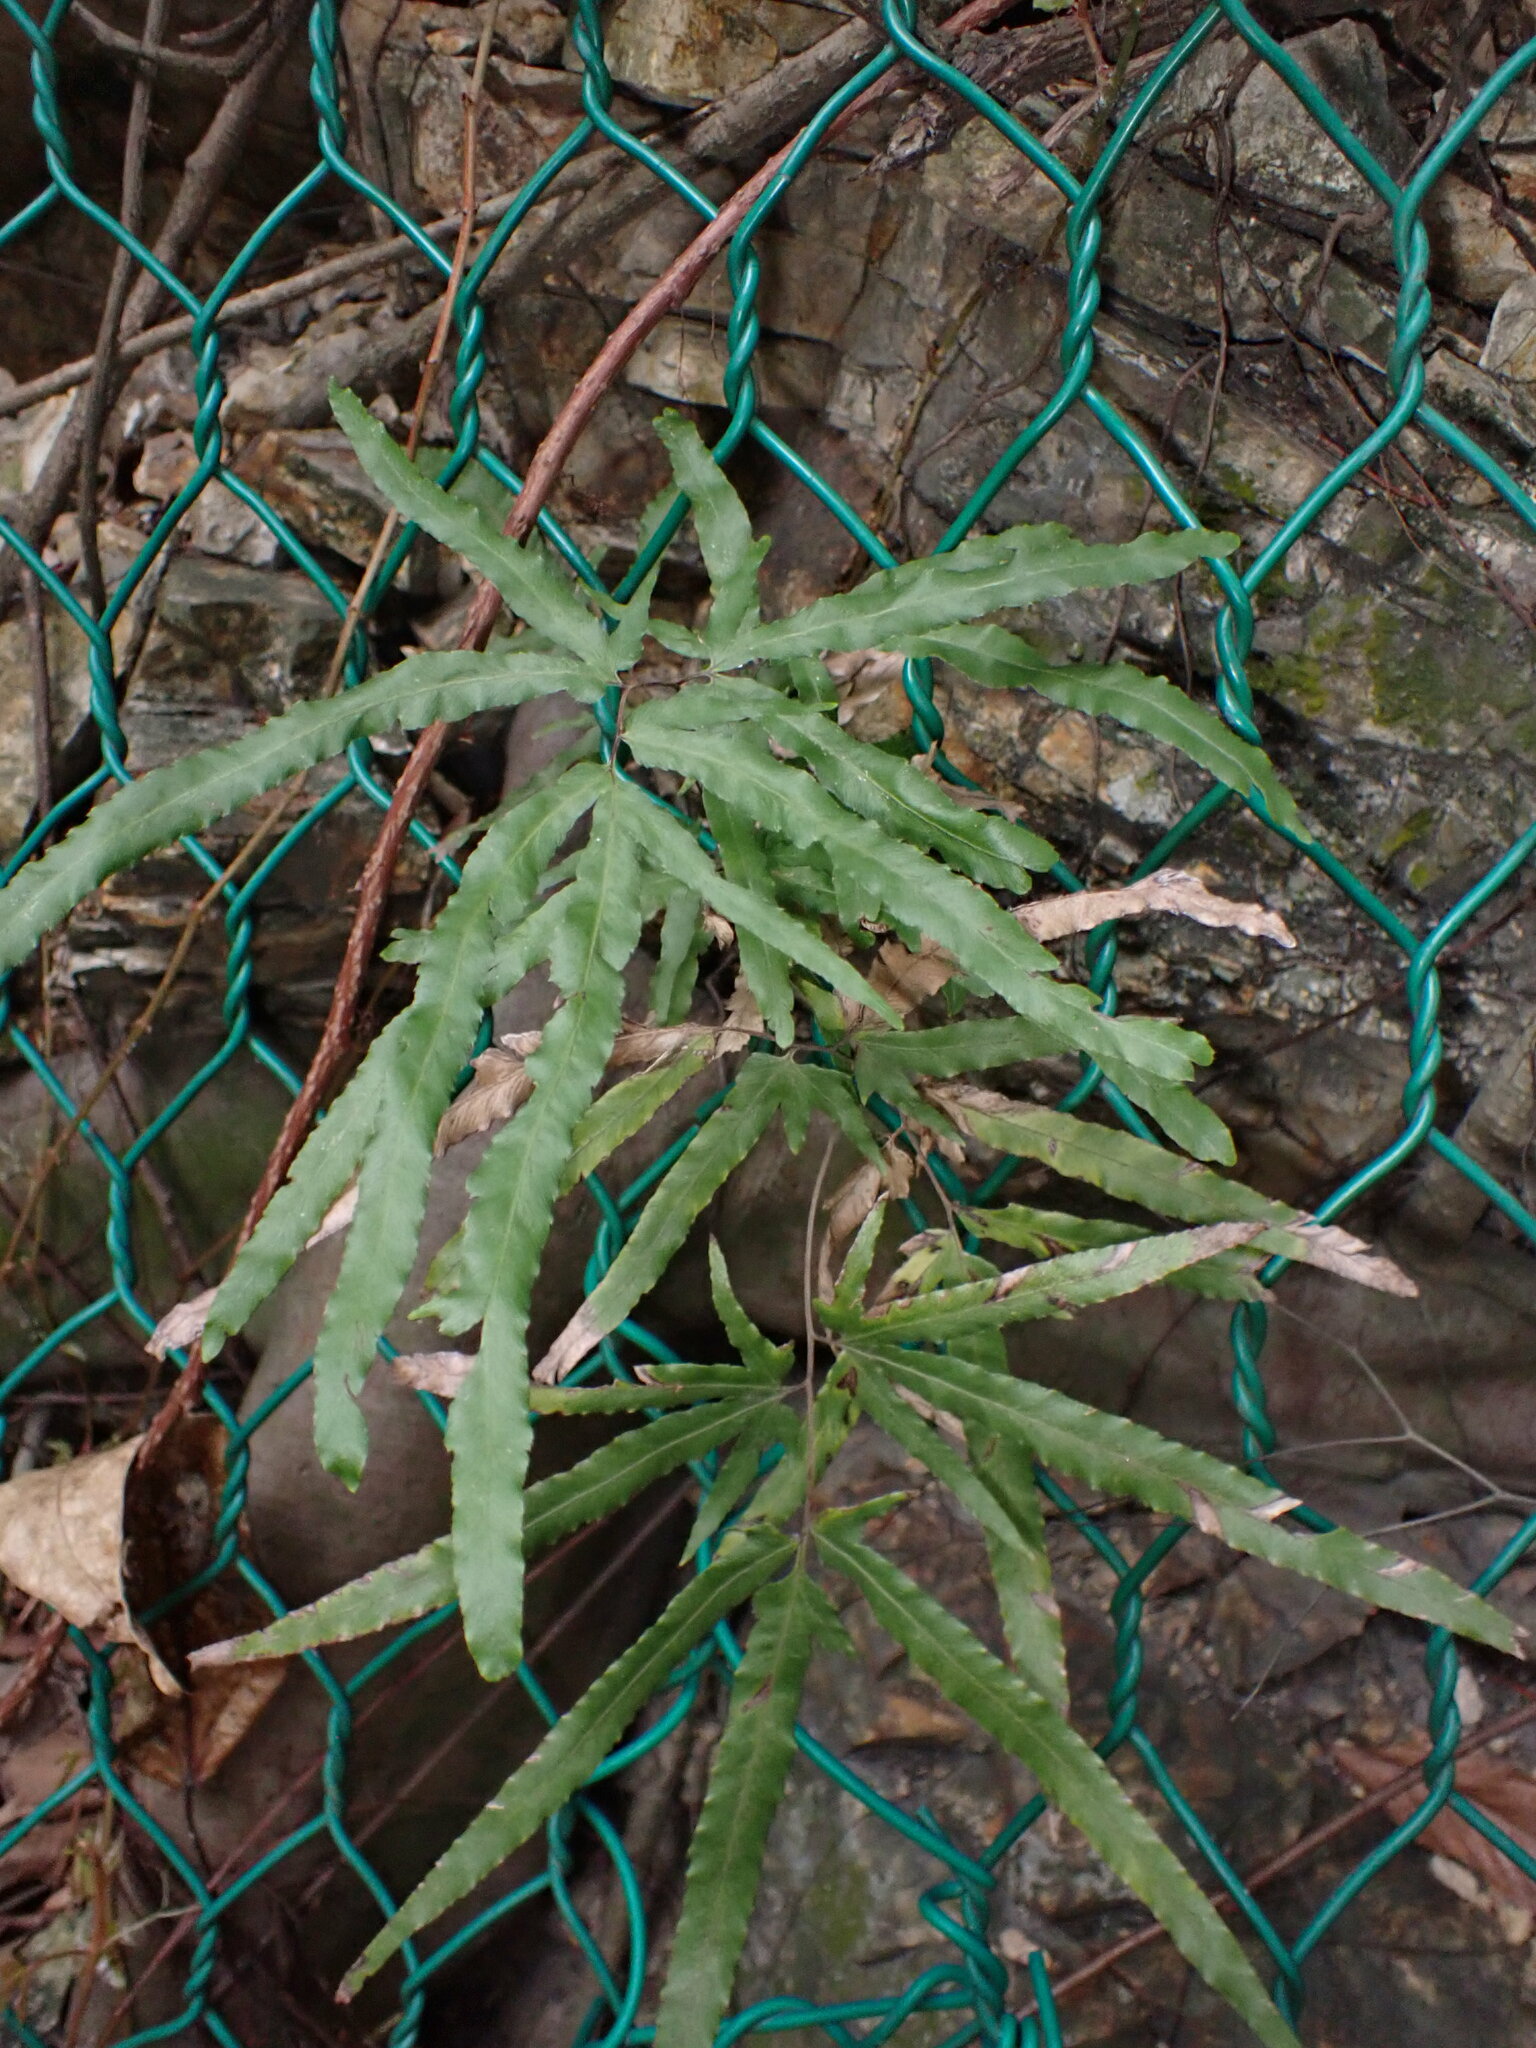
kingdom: Plantae
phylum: Tracheophyta
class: Polypodiopsida
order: Schizaeales
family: Lygodiaceae
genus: Lygodium
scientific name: Lygodium japonicum
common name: Japanese climbing fern
